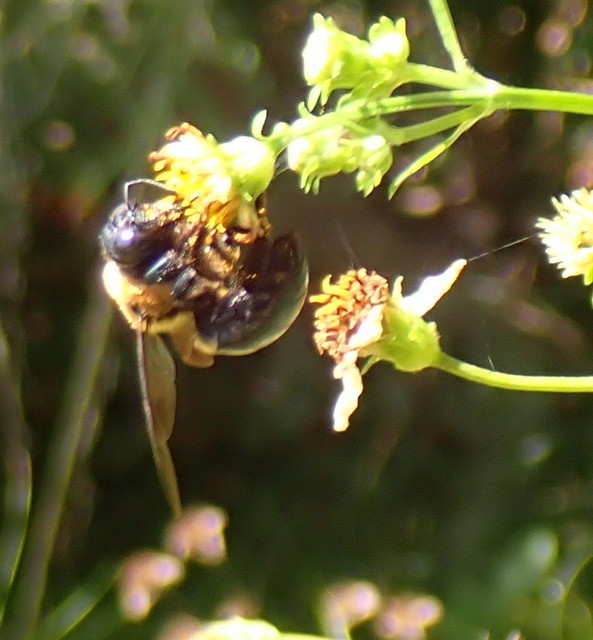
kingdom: Animalia
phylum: Arthropoda
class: Insecta
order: Hymenoptera
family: Apidae
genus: Xylocopa
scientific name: Xylocopa virginica
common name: Carpenter bee
